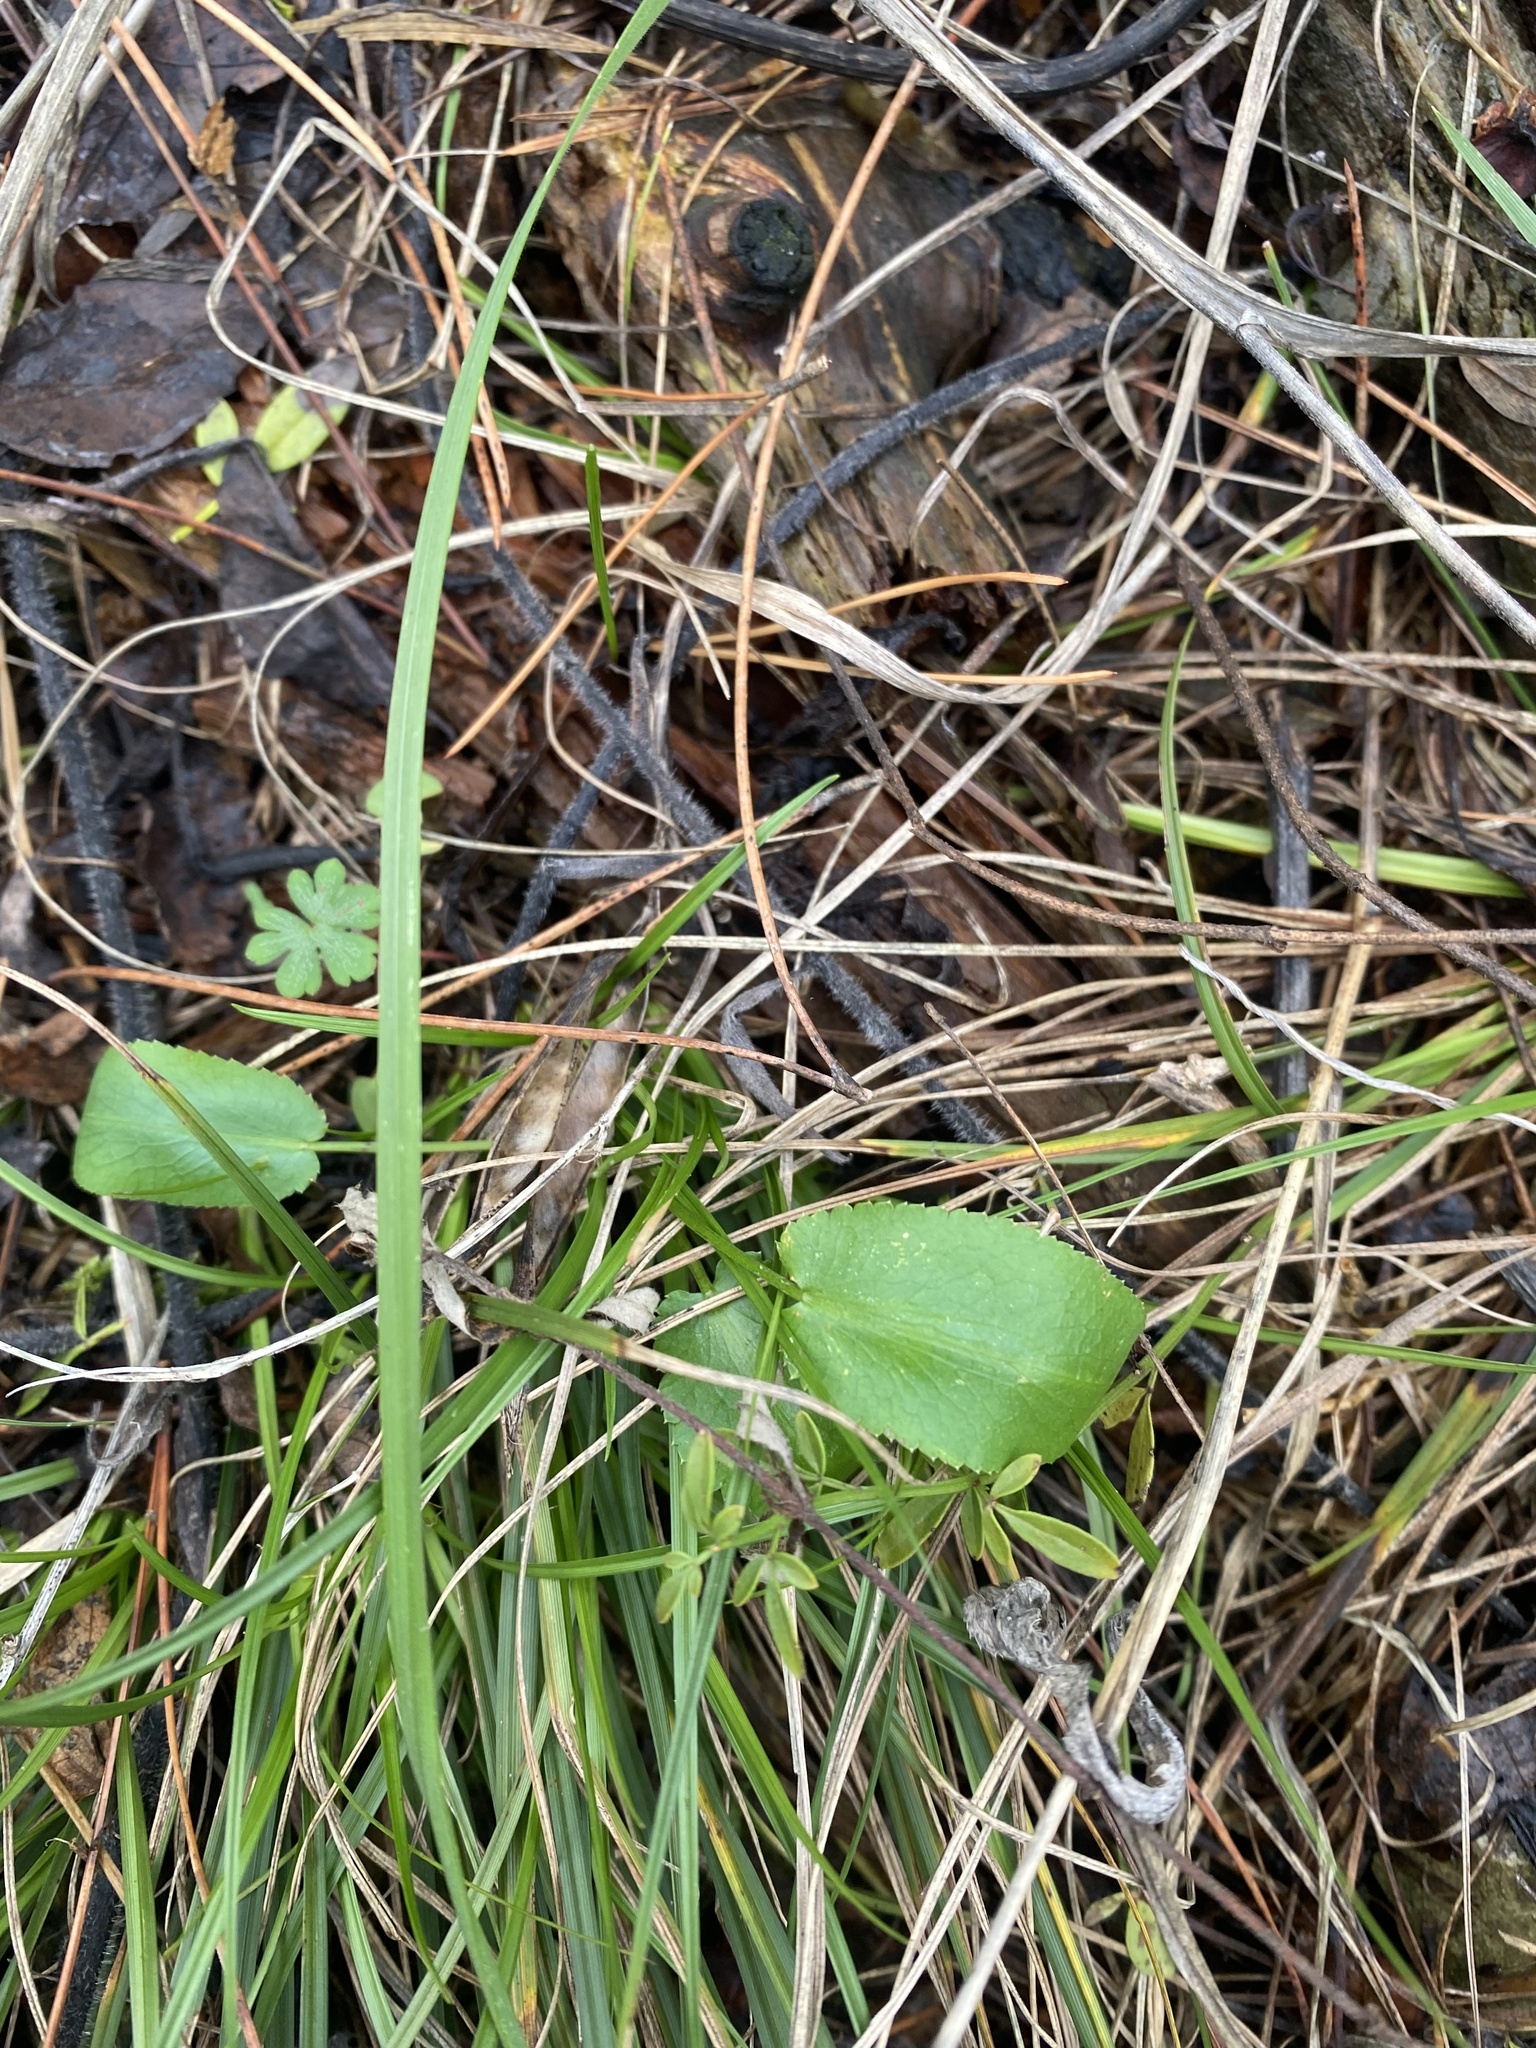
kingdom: Plantae
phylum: Tracheophyta
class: Magnoliopsida
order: Apiales
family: Apiaceae
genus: Eryngium
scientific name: Eryngium campestre
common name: Field eryngo
